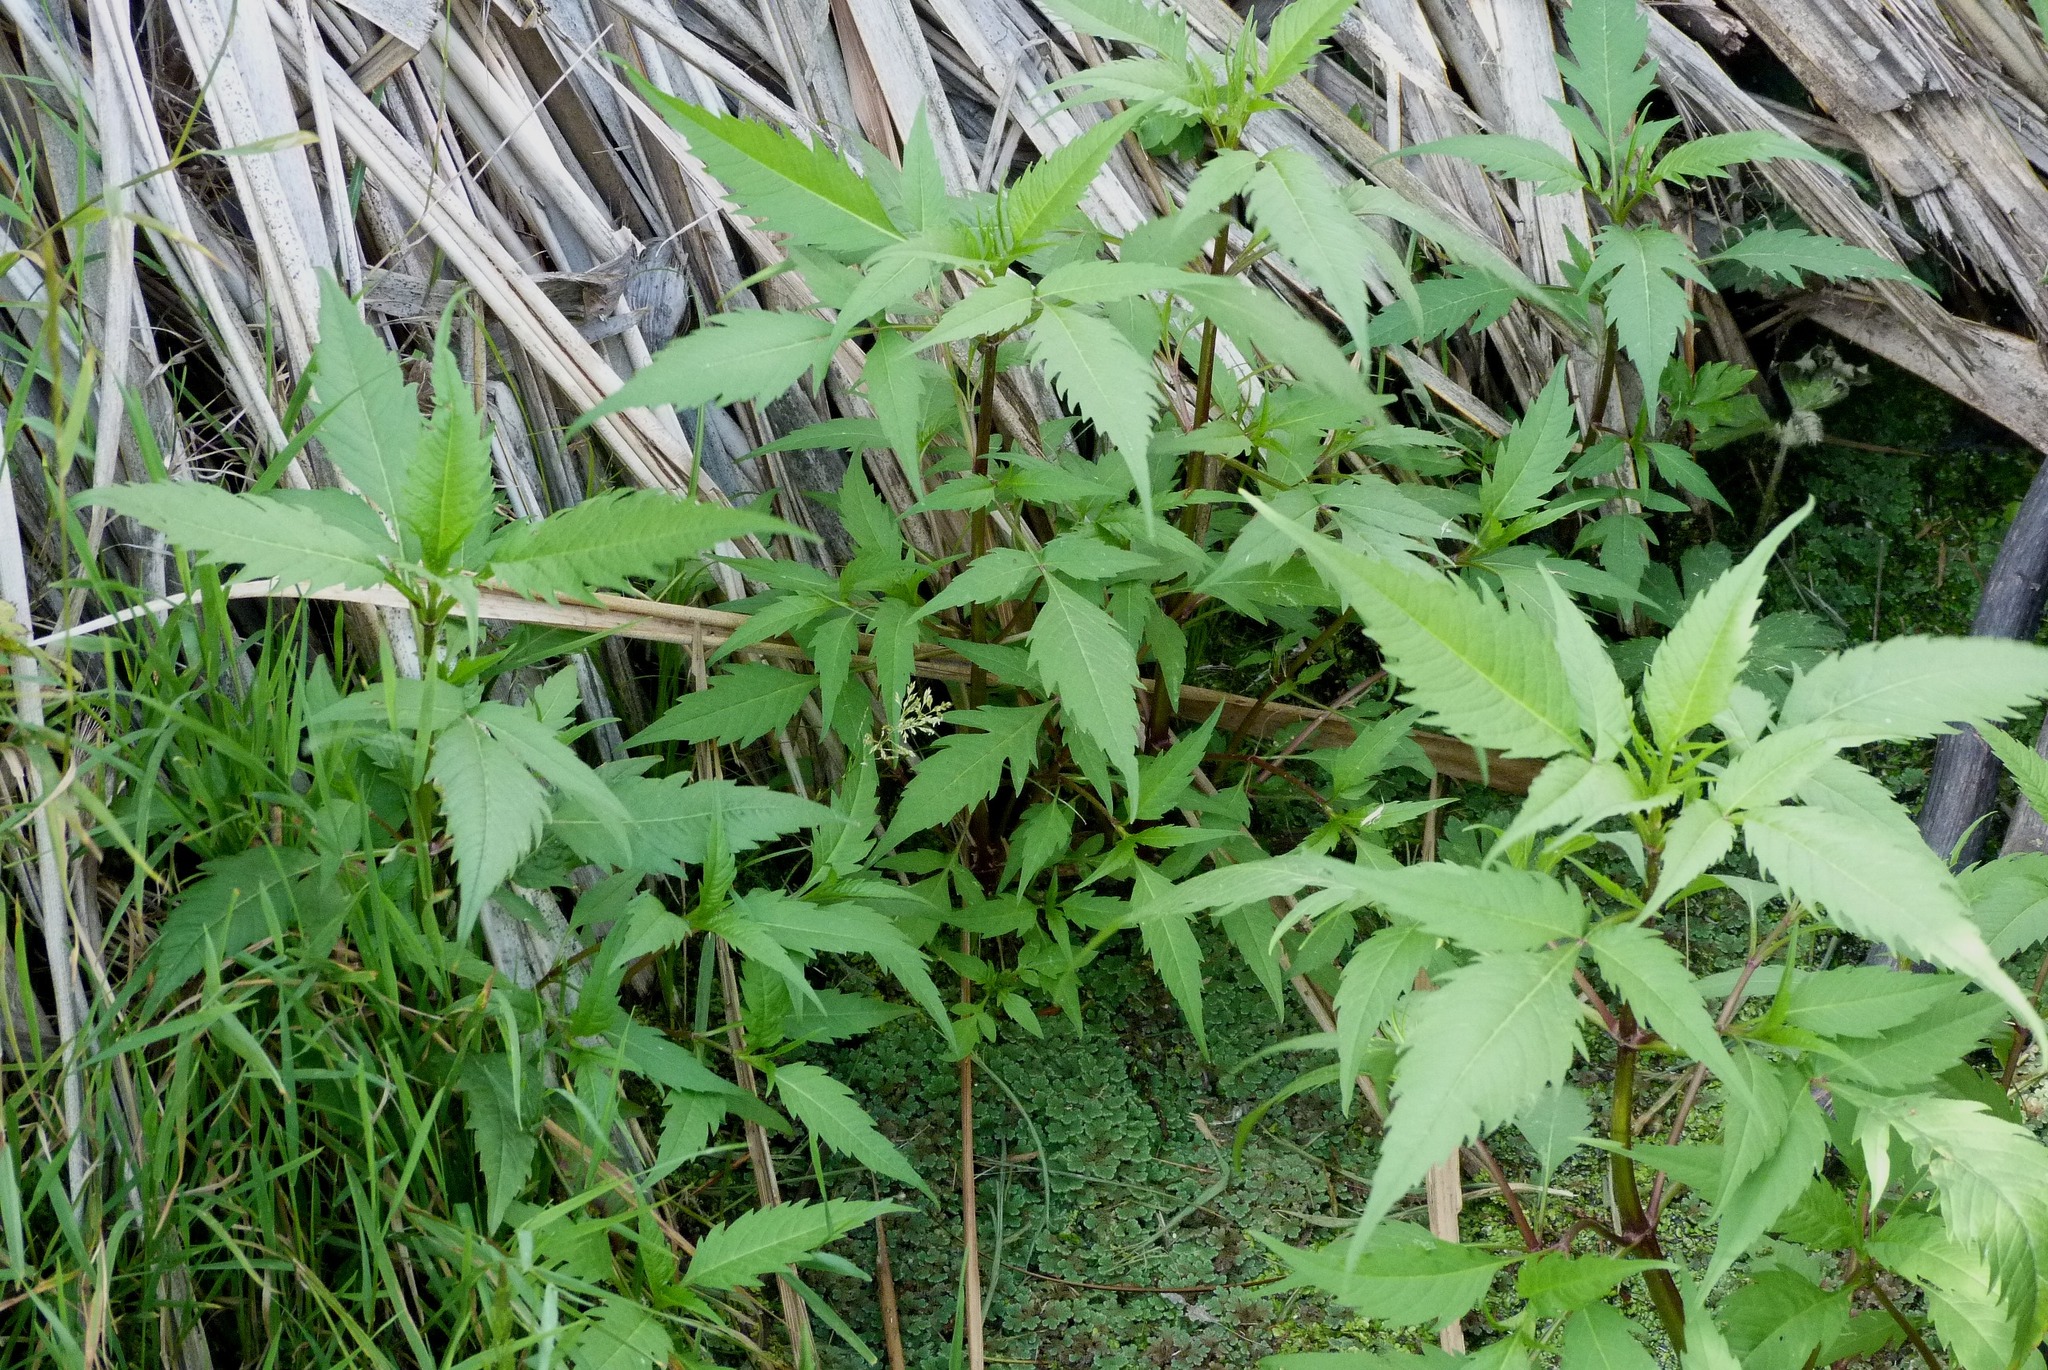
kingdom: Plantae
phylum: Tracheophyta
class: Magnoliopsida
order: Asterales
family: Asteraceae
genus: Bidens
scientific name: Bidens frondosa
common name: Beggarticks
